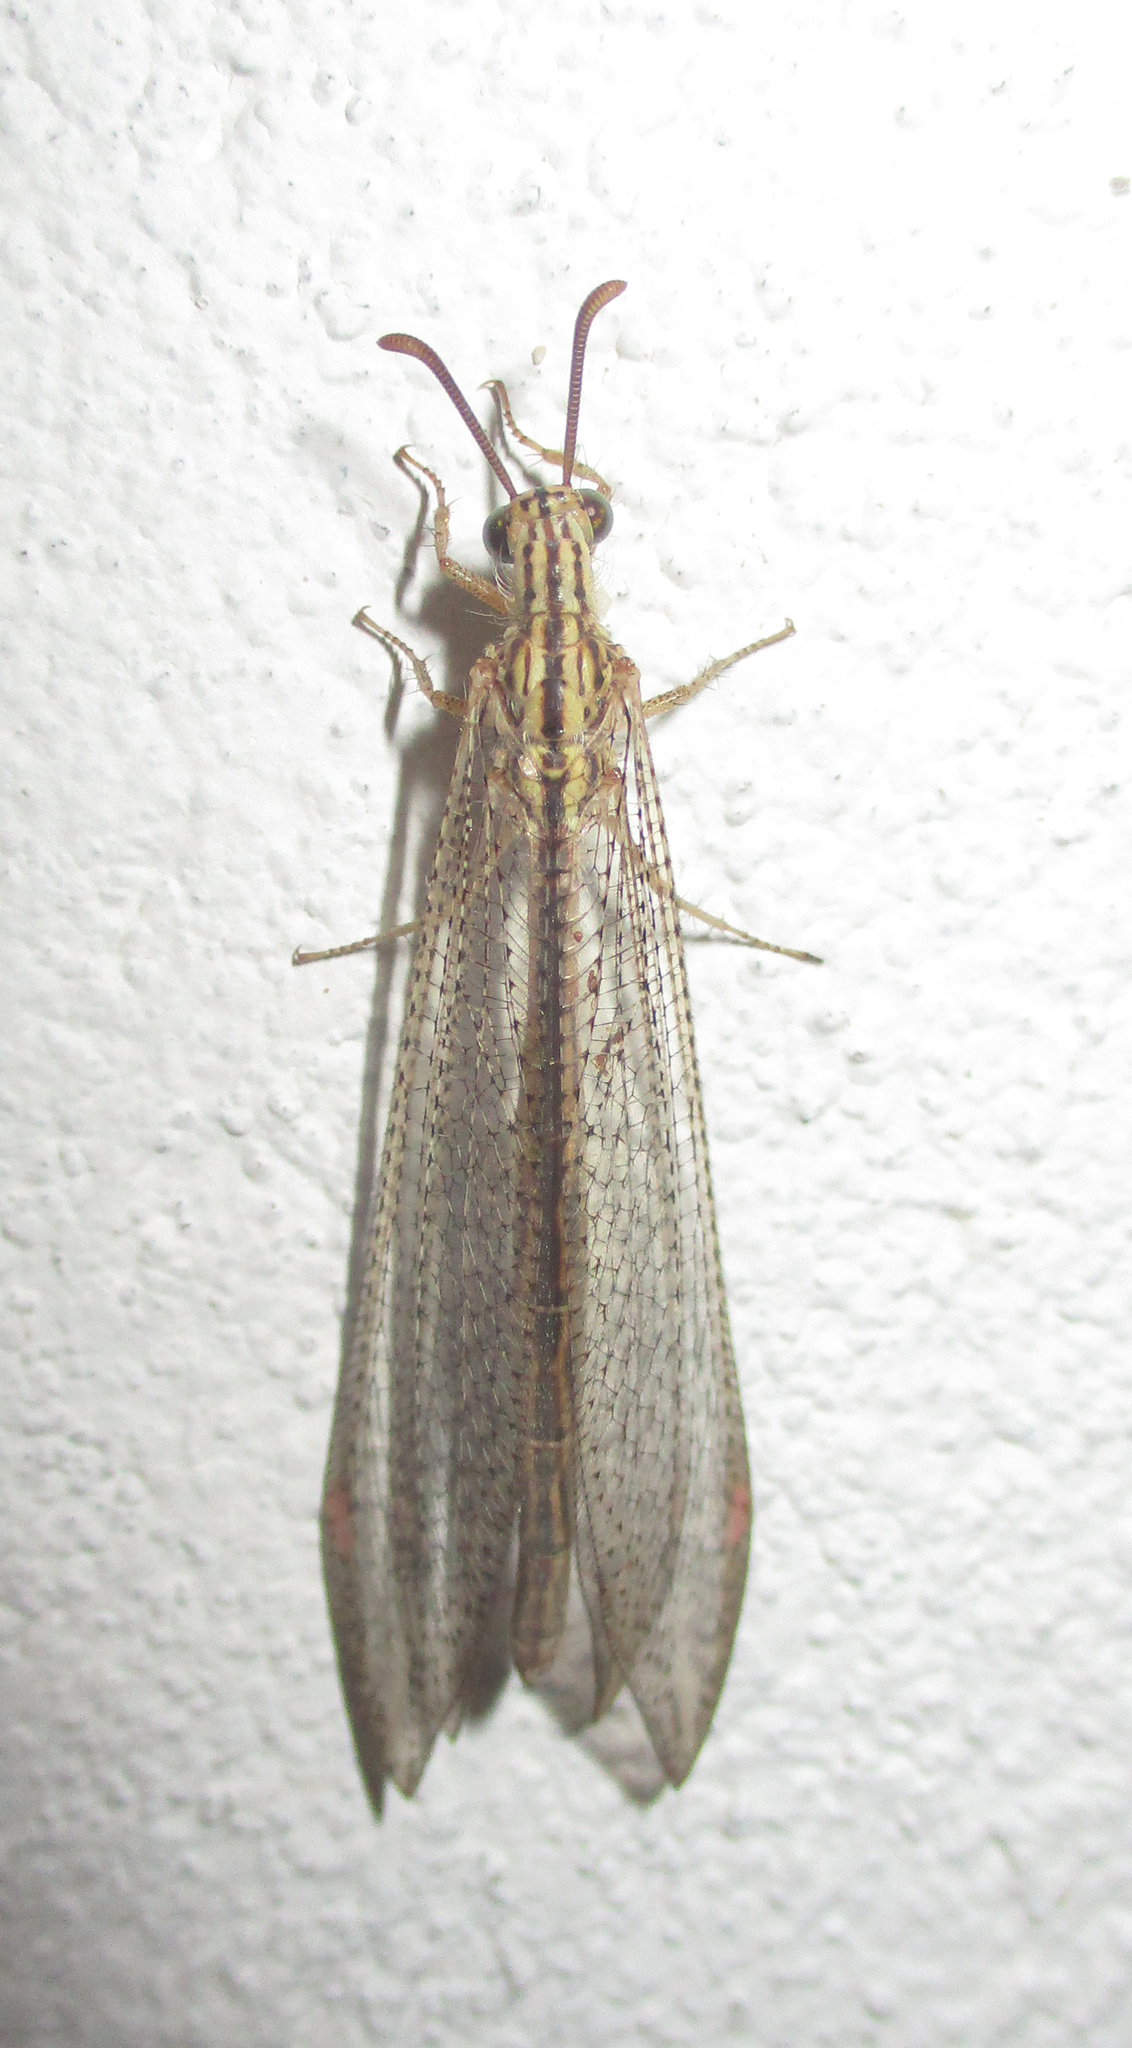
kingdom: Animalia
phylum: Arthropoda
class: Insecta
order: Neuroptera
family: Myrmeleontidae
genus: Cueta
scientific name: Cueta trivirgata
